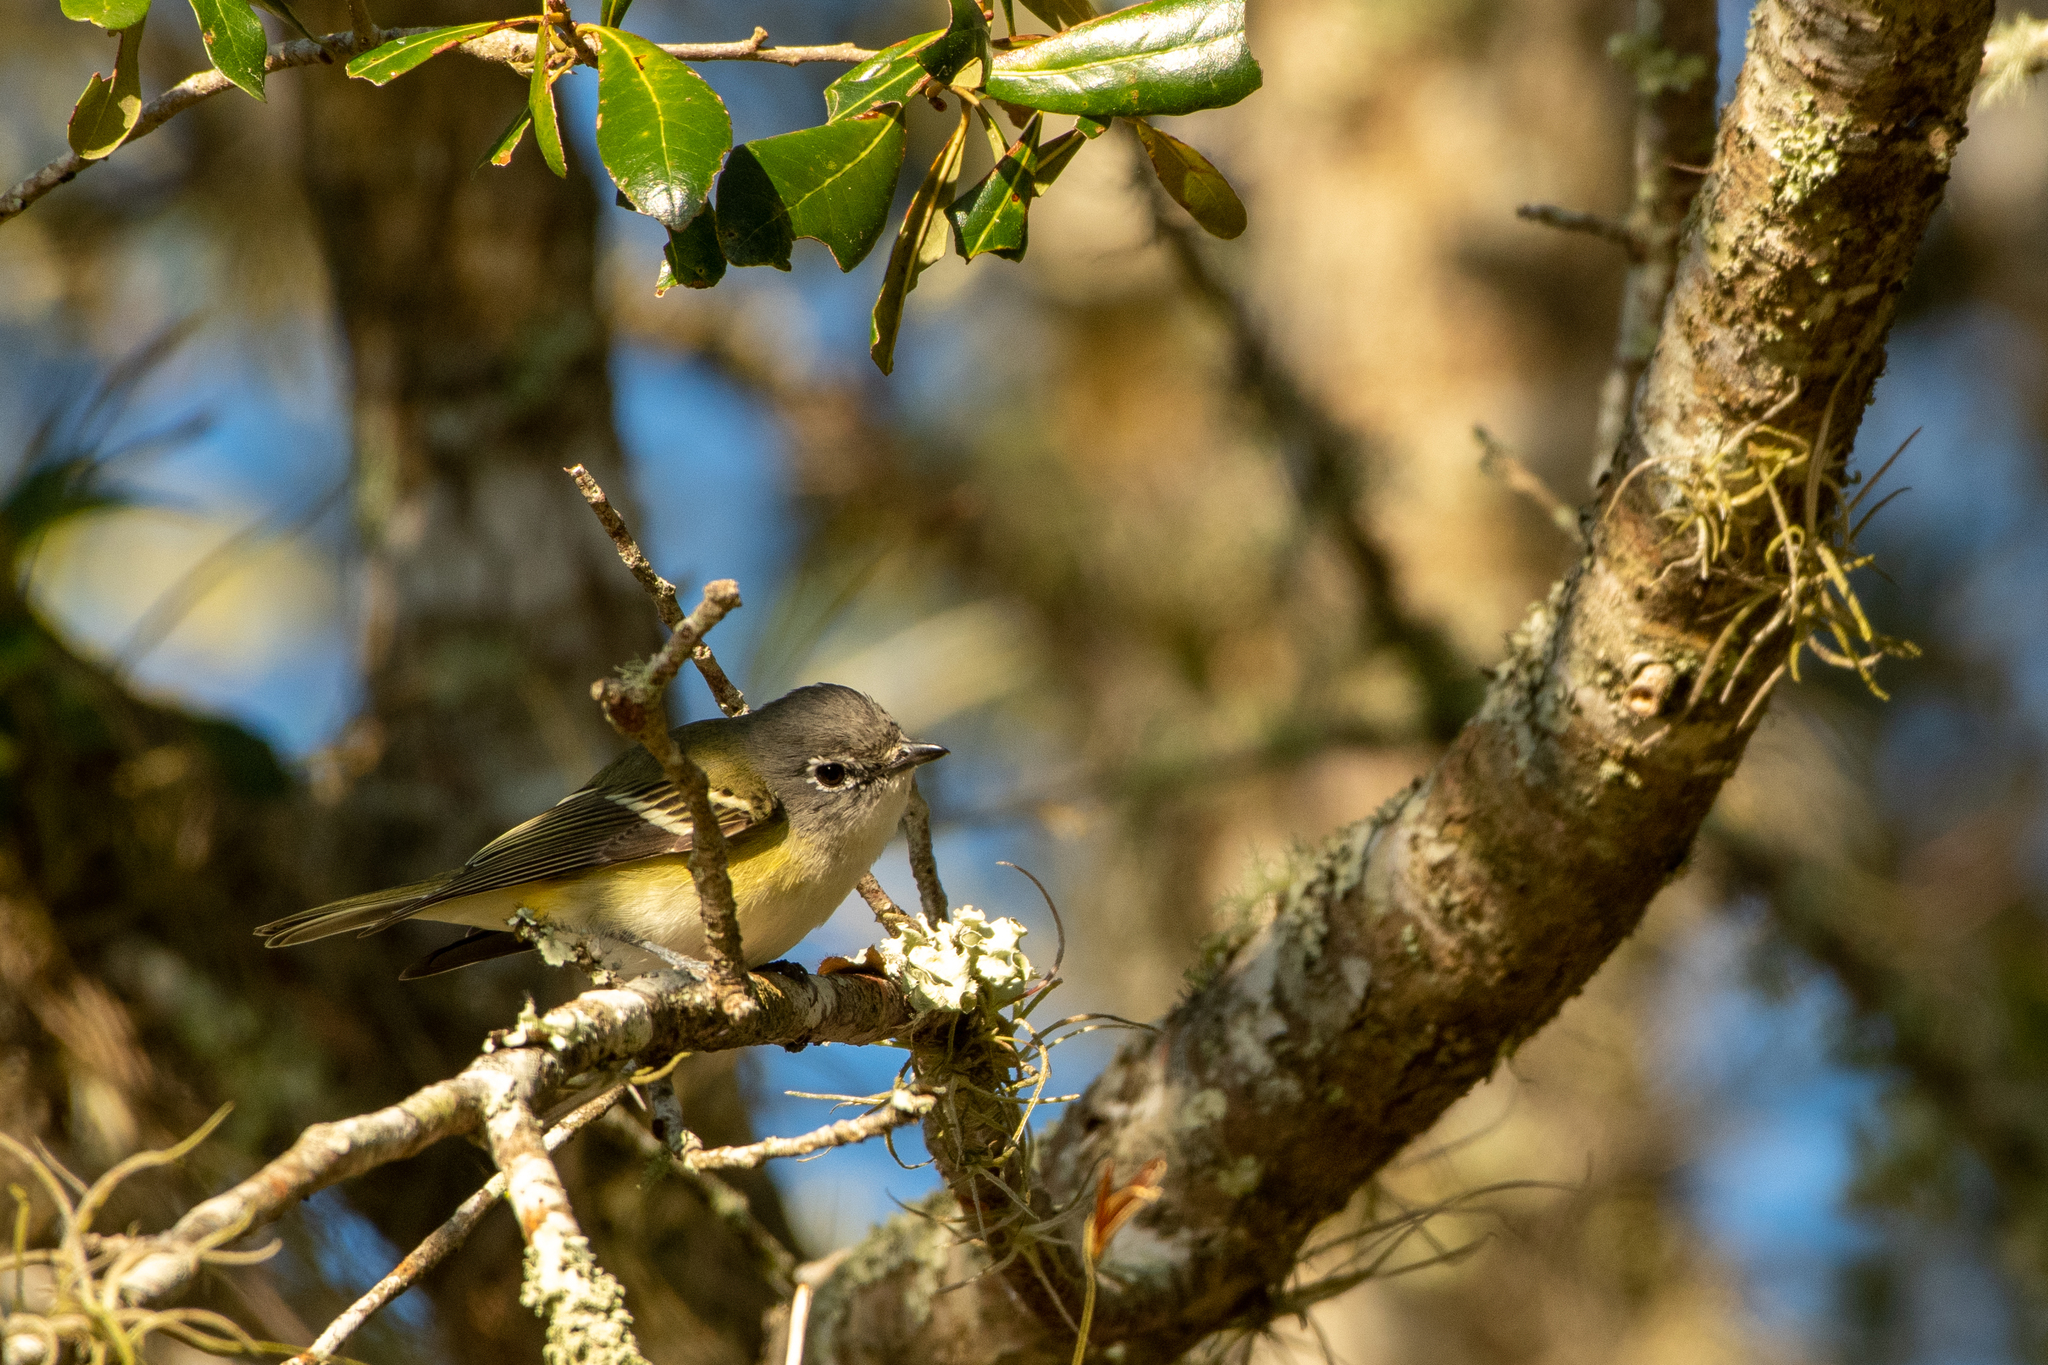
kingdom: Animalia
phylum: Chordata
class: Aves
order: Passeriformes
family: Vireonidae
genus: Vireo
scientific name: Vireo solitarius
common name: Blue-headed vireo
